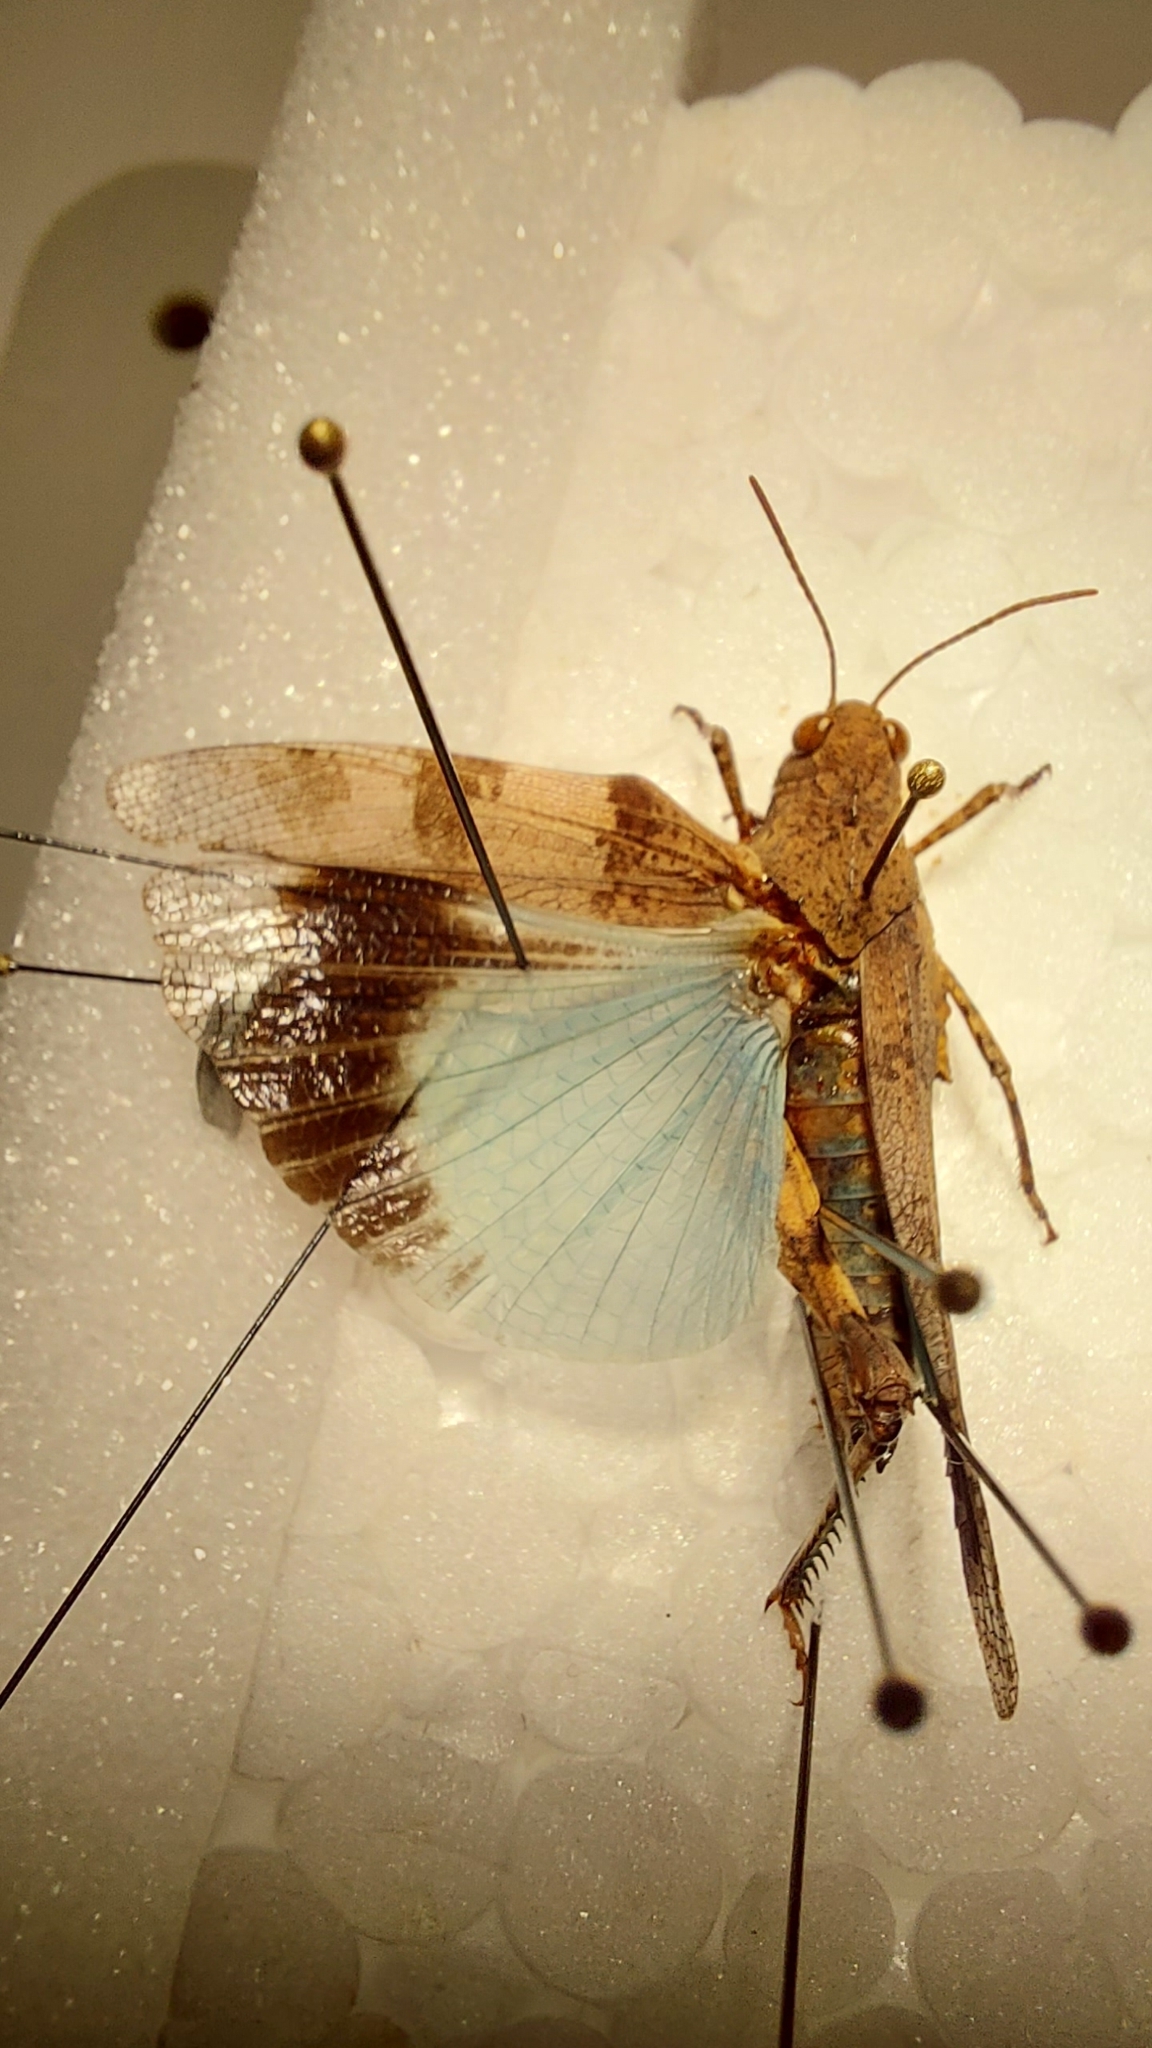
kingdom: Animalia
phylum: Arthropoda
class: Insecta
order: Orthoptera
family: Acrididae
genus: Oedipoda
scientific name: Oedipoda caerulescens
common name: Blue-winged grasshopper
